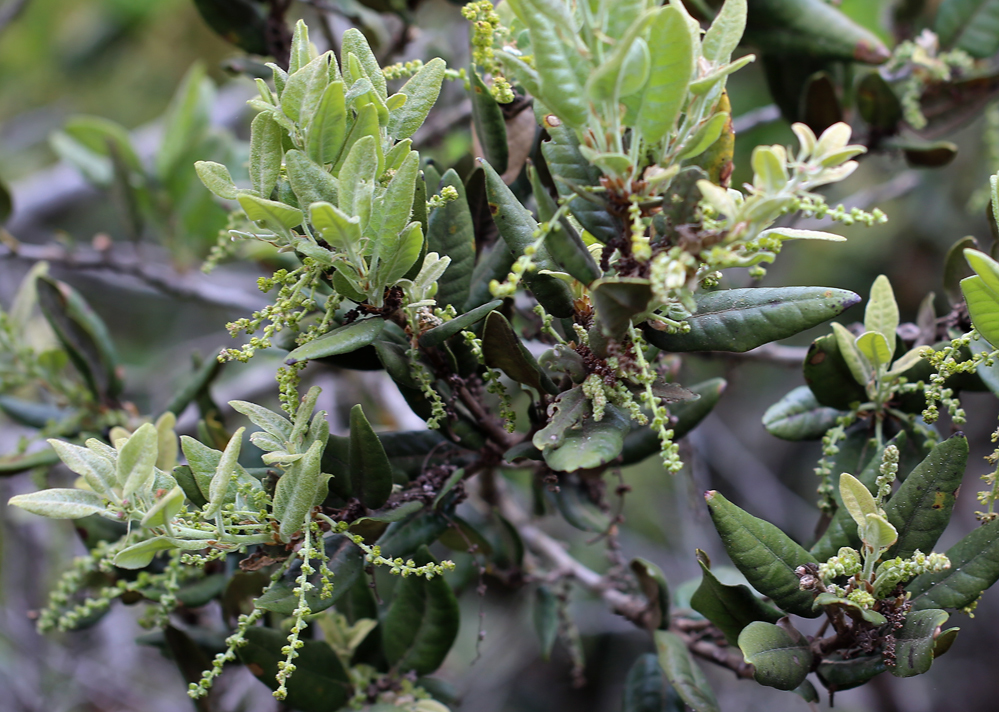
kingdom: Plantae
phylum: Tracheophyta
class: Magnoliopsida
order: Fagales
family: Fagaceae
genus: Quercus
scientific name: Quercus tomentella
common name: Island oak
